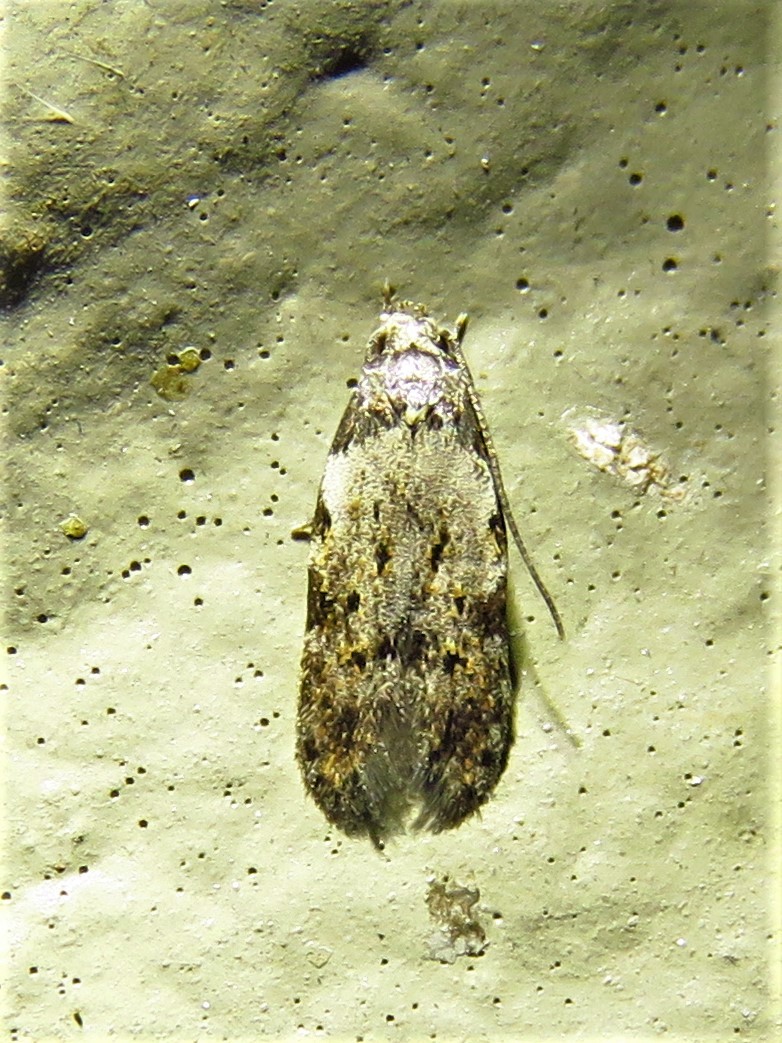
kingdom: Animalia
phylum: Arthropoda
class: Insecta
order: Lepidoptera
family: Autostichidae
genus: Taygete
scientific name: Taygete attributella
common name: Triangle-marked twirler moth
